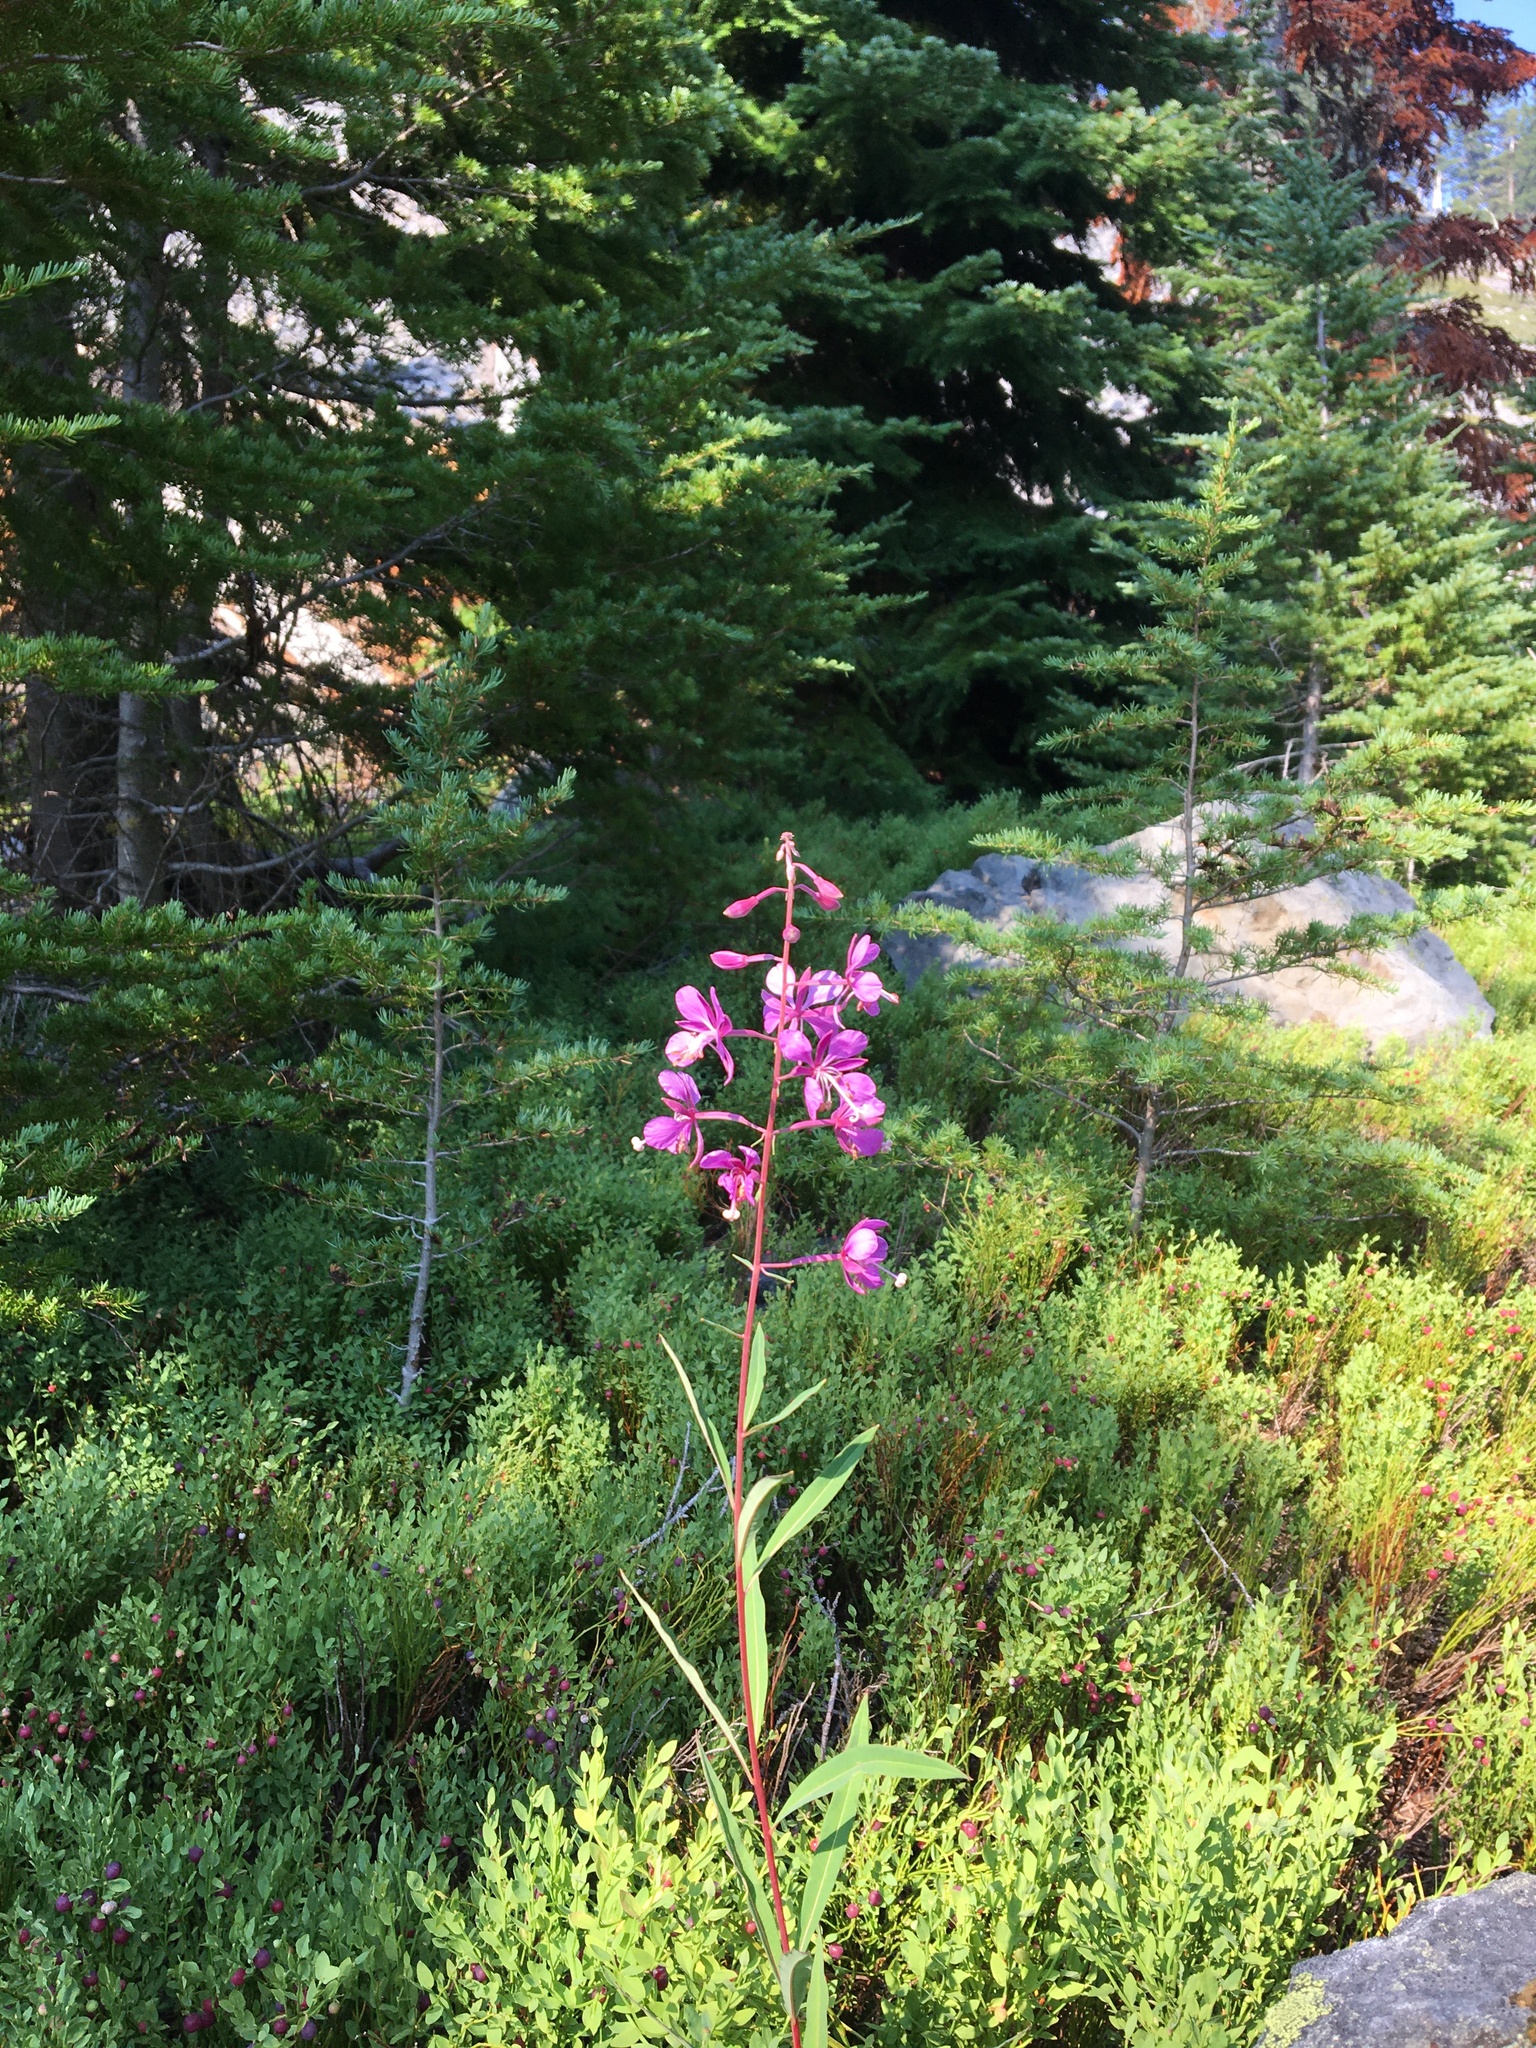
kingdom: Plantae
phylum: Tracheophyta
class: Magnoliopsida
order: Myrtales
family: Onagraceae
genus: Chamaenerion
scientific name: Chamaenerion angustifolium
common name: Fireweed
